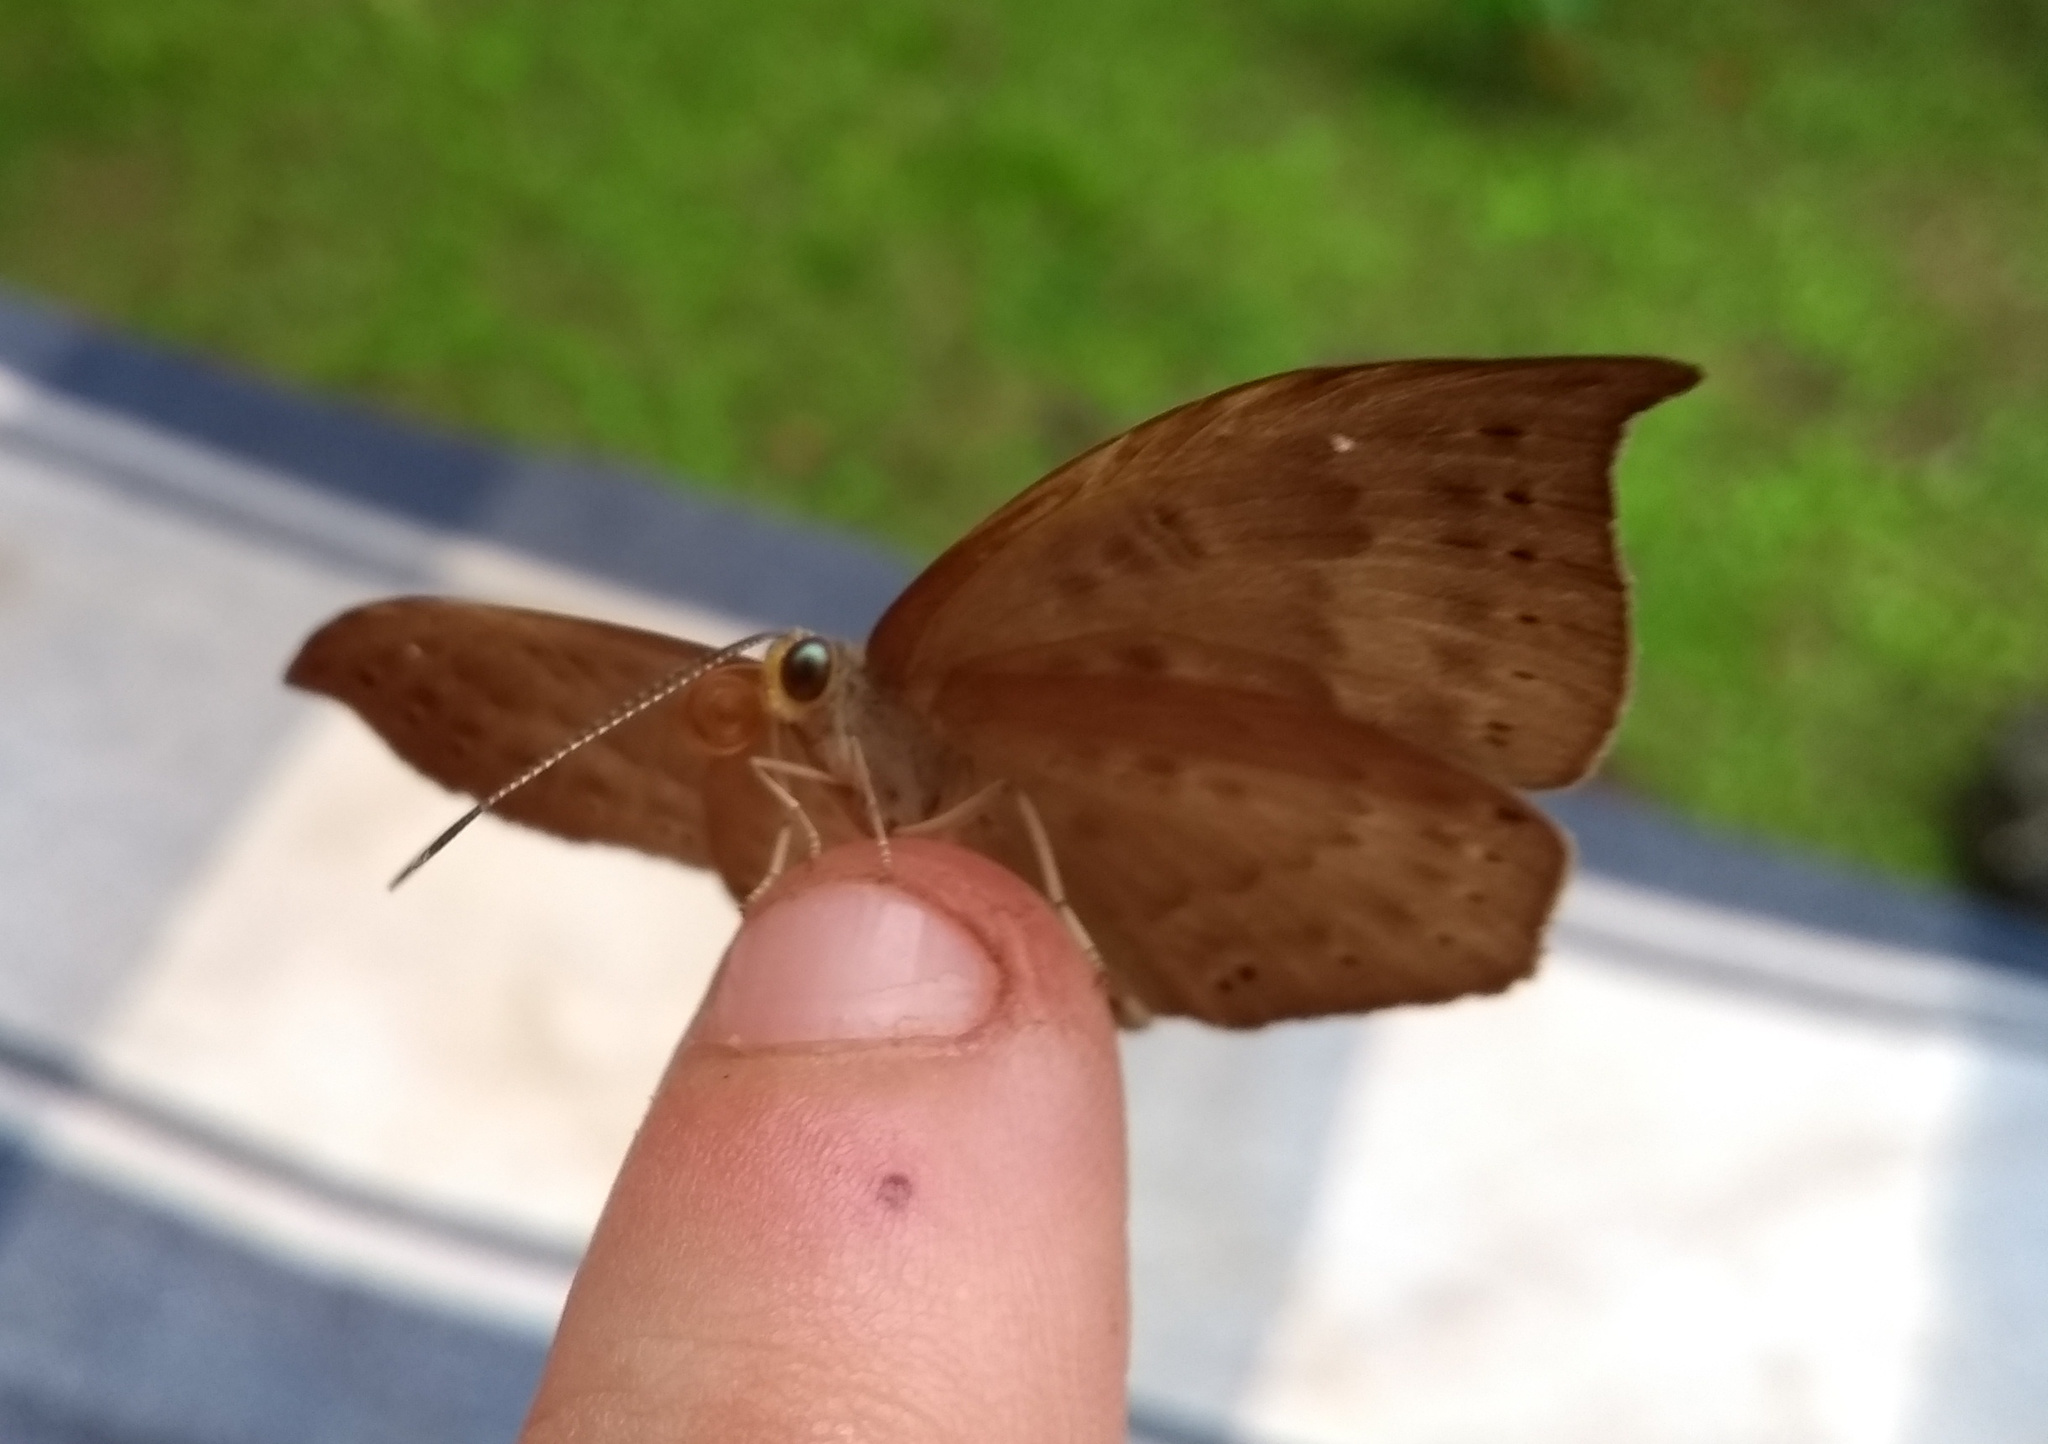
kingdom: Animalia
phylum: Cnidaria
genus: Eurybia
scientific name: Eurybia pergaea
